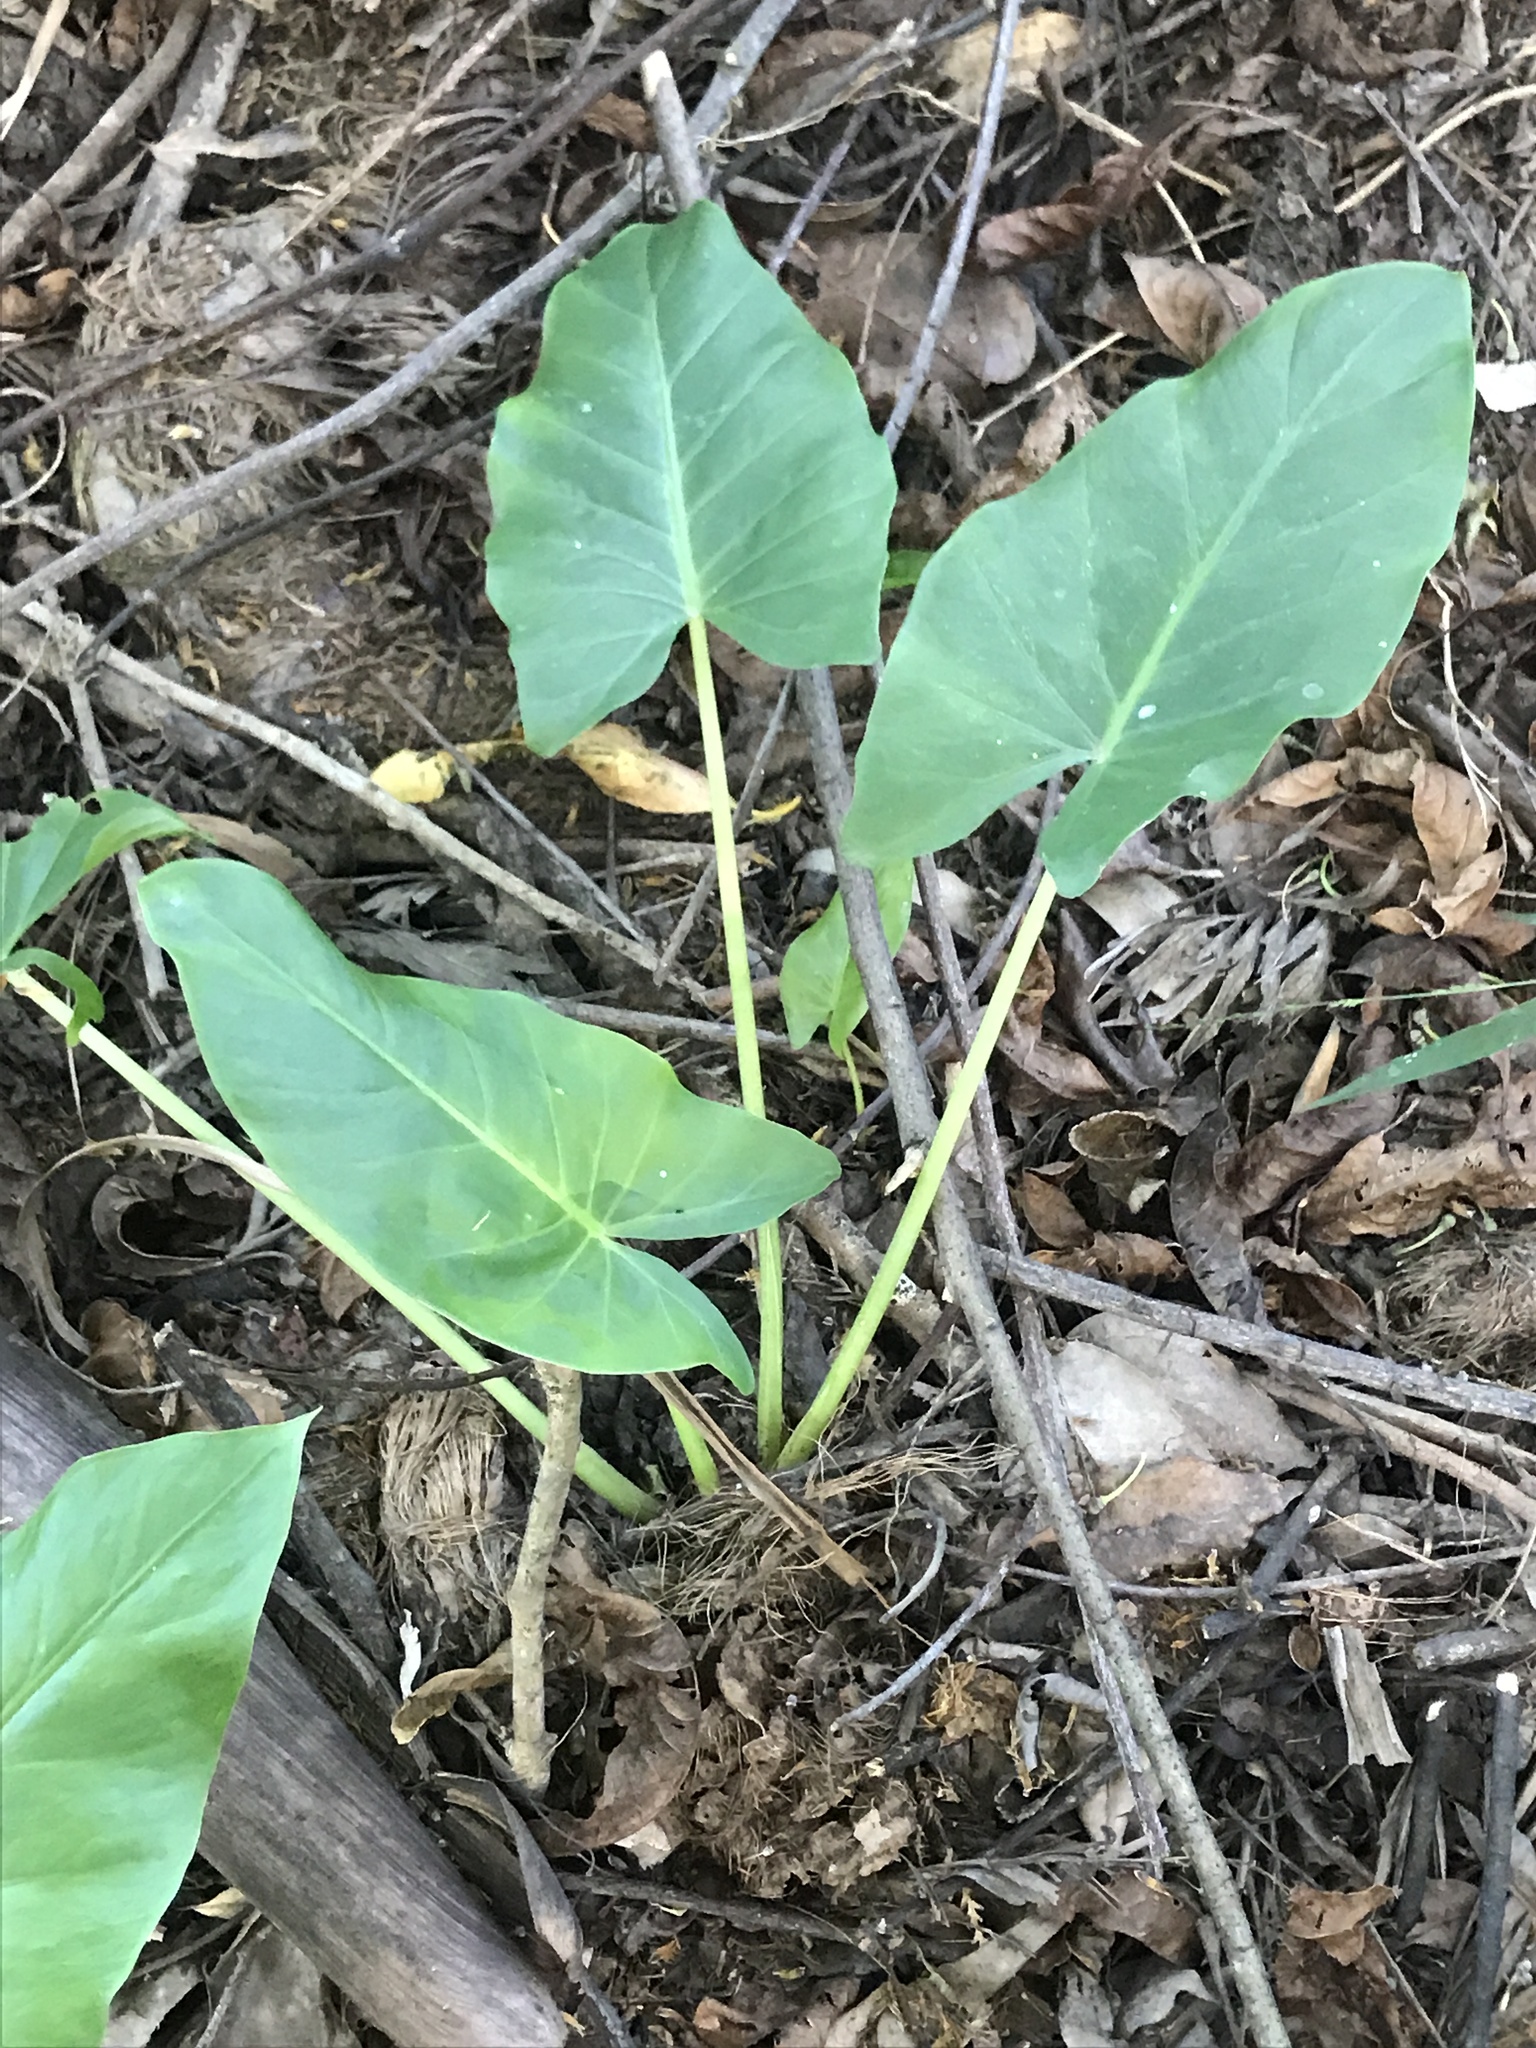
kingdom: Plantae
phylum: Tracheophyta
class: Liliopsida
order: Alismatales
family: Araceae
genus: Alocasia
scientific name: Alocasia brisbanensis
